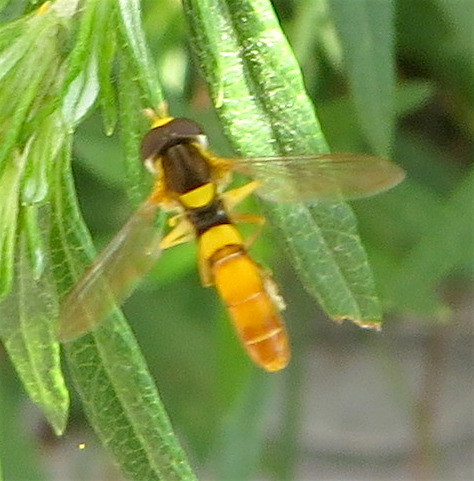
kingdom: Animalia
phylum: Arthropoda
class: Insecta
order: Diptera
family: Syrphidae
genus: Sphaerophoria
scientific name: Sphaerophoria contigua
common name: Tufted globetail
